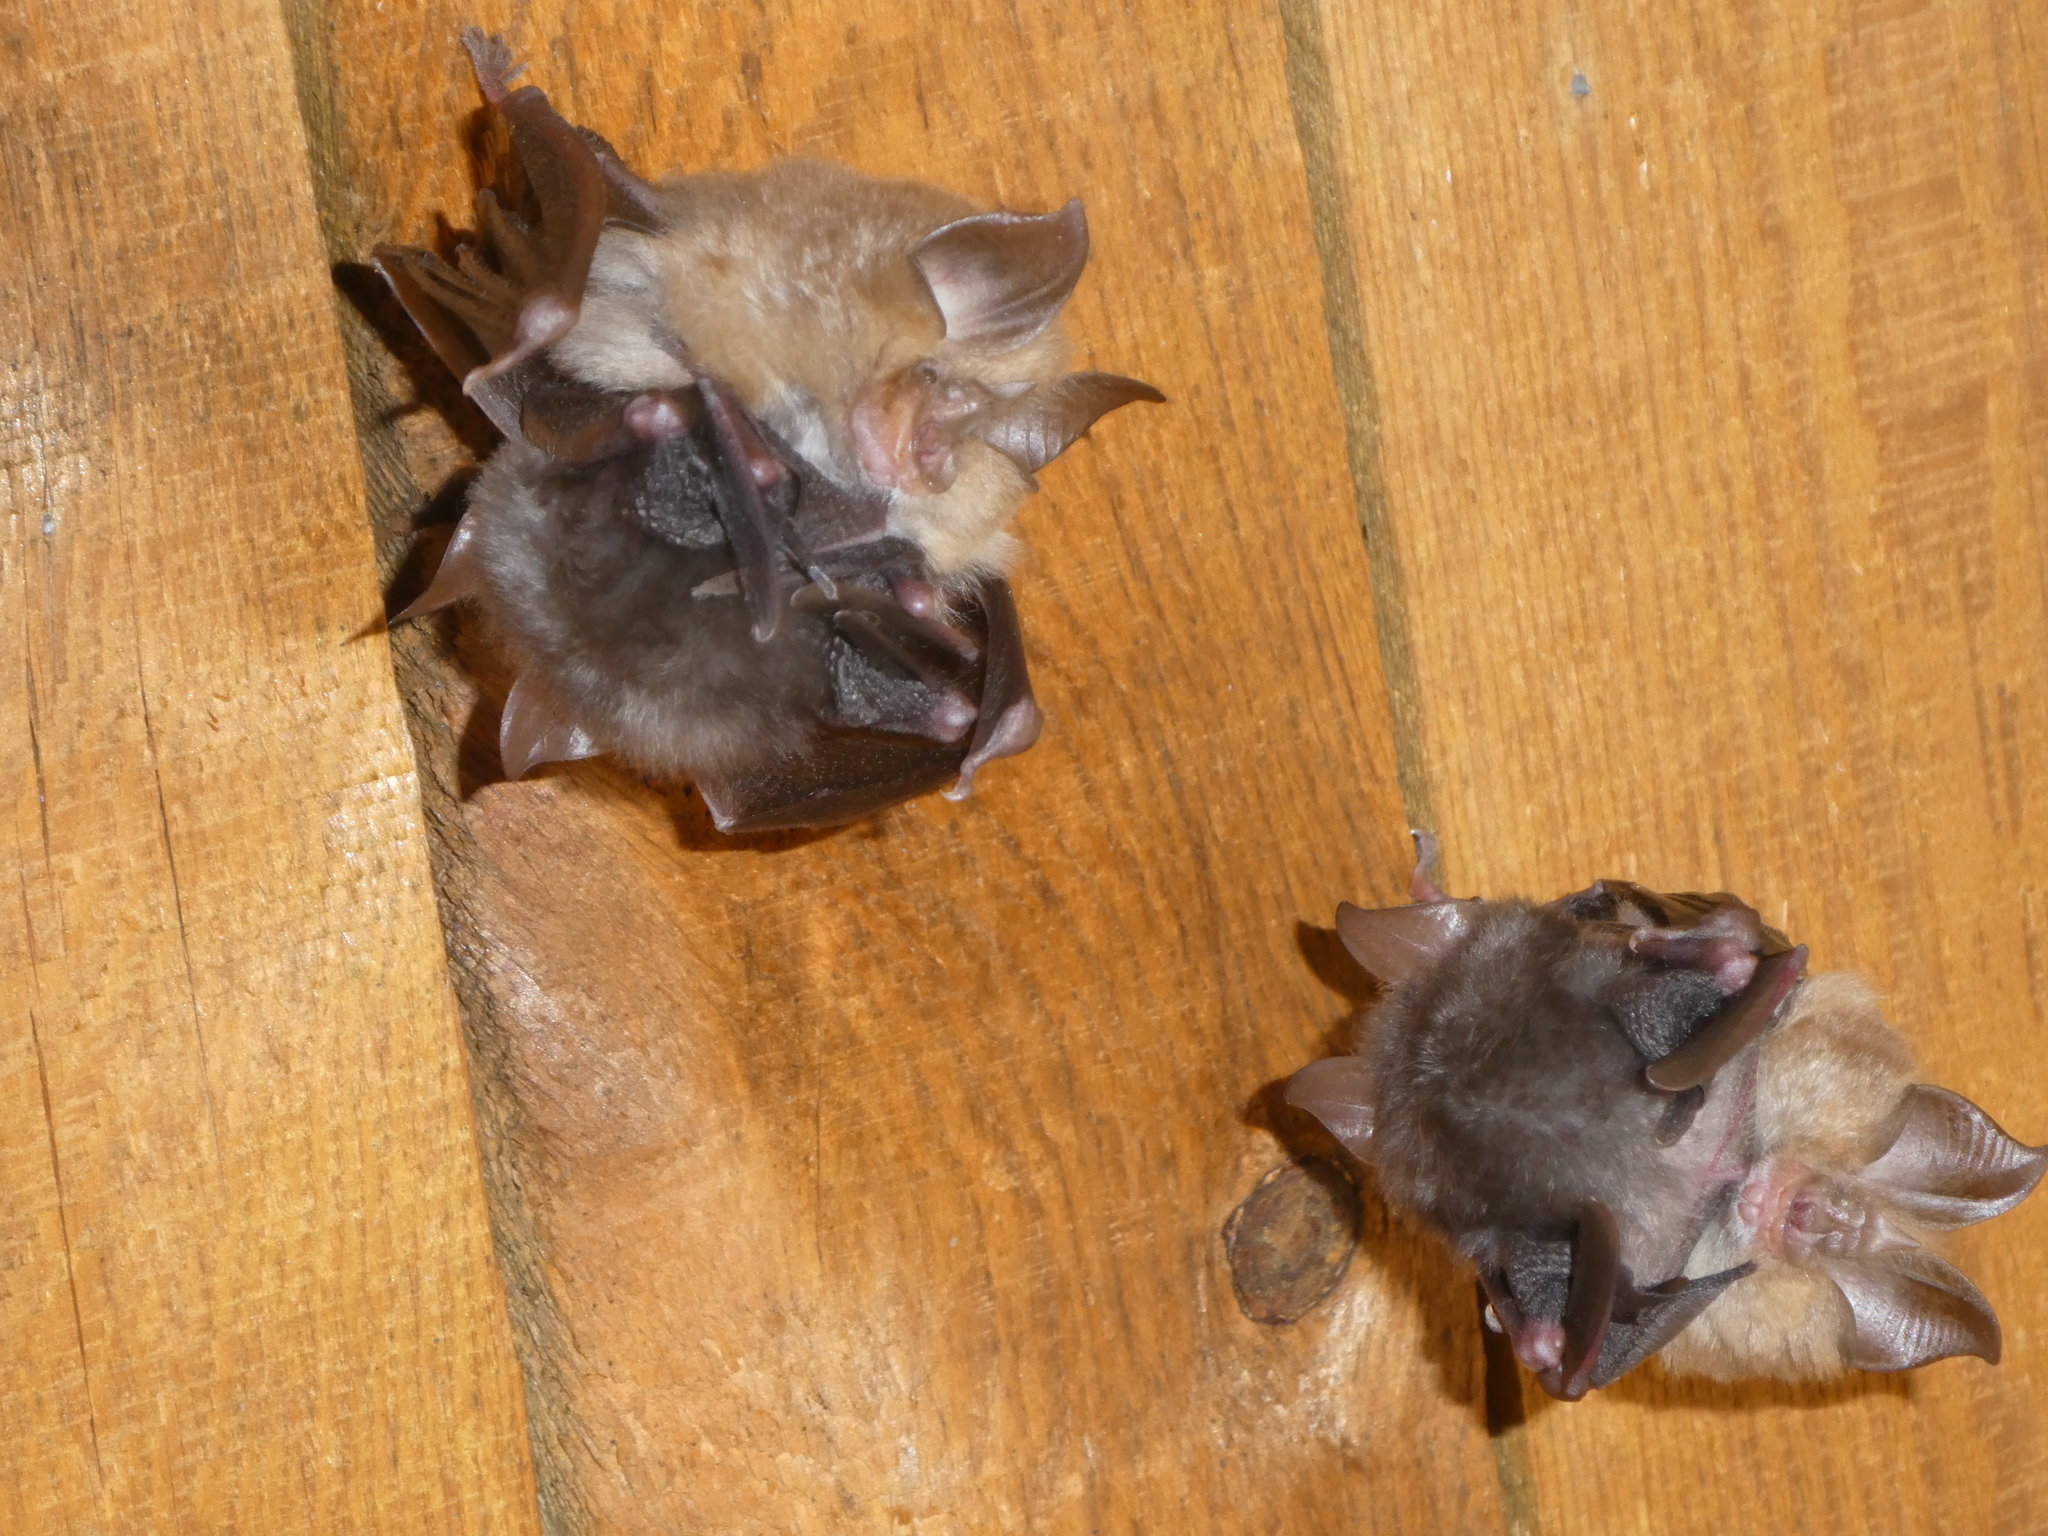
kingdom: Animalia
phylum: Chordata
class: Mammalia
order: Chiroptera
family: Rhinolophidae
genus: Rhinolophus
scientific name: Rhinolophus hipposideros
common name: Lesser horseshoe bat
